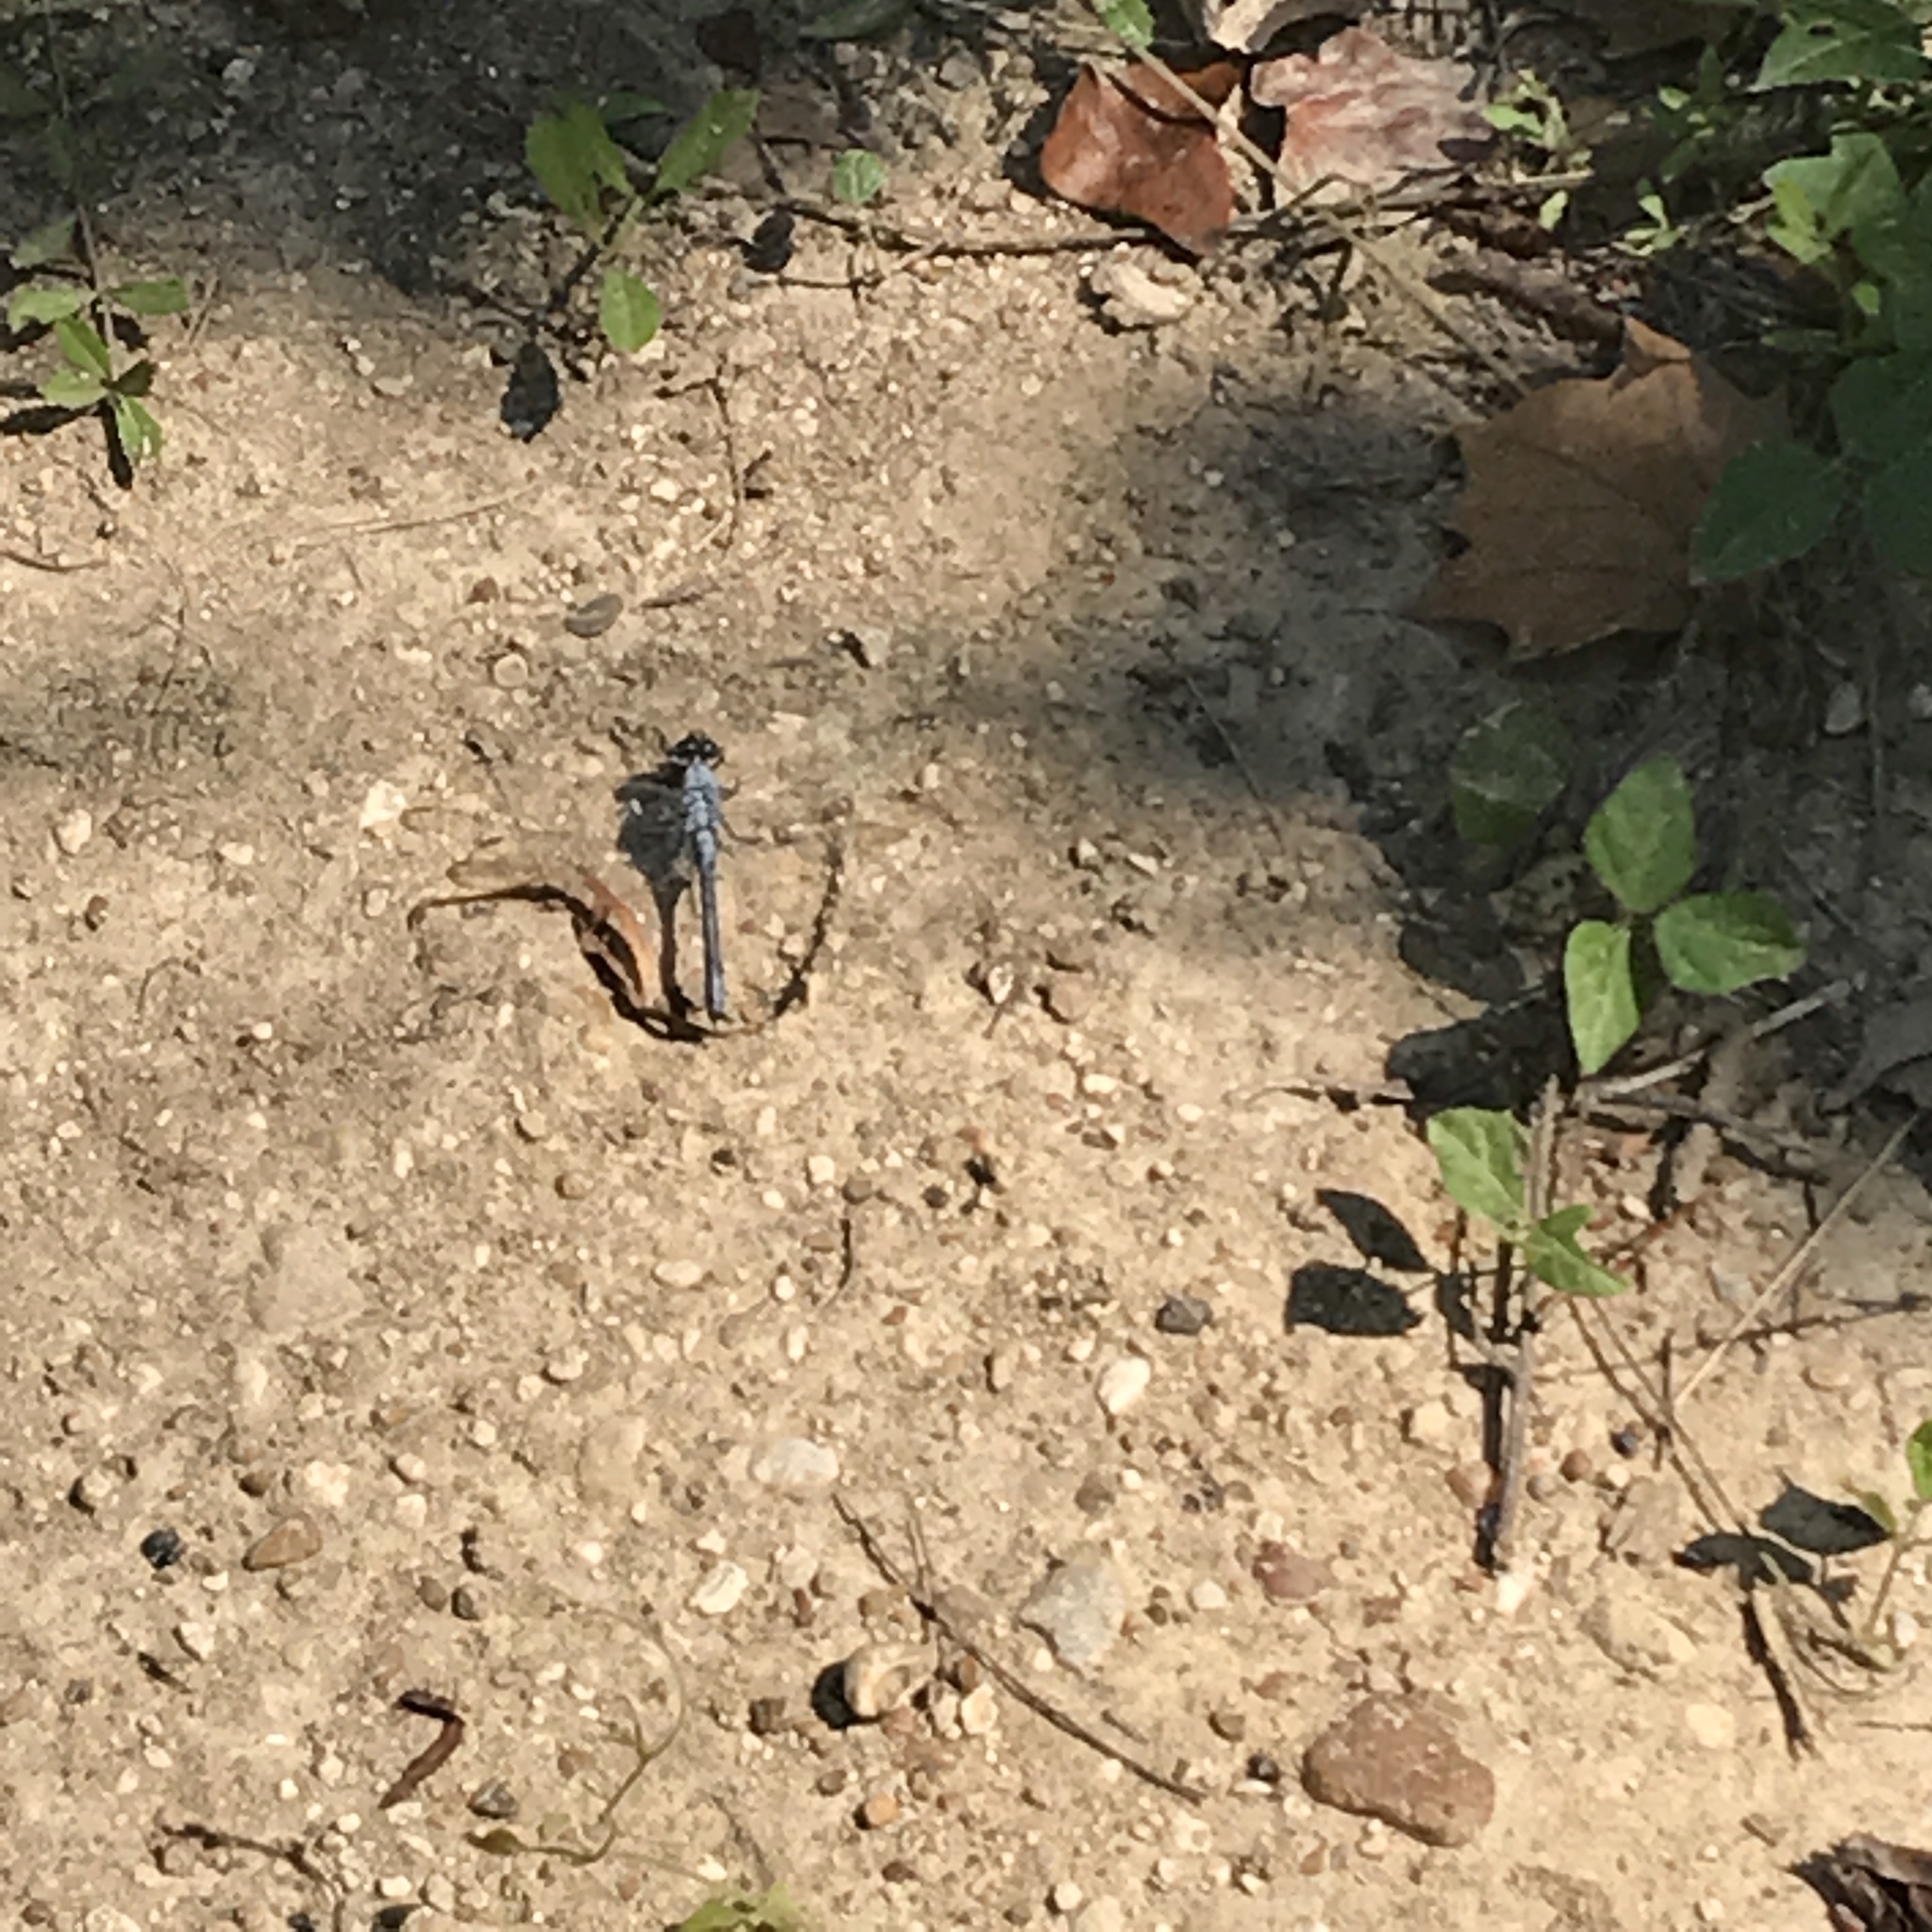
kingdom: Animalia
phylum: Arthropoda
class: Insecta
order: Odonata
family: Libellulidae
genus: Erythemis
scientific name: Erythemis simplicicollis
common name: Eastern pondhawk
